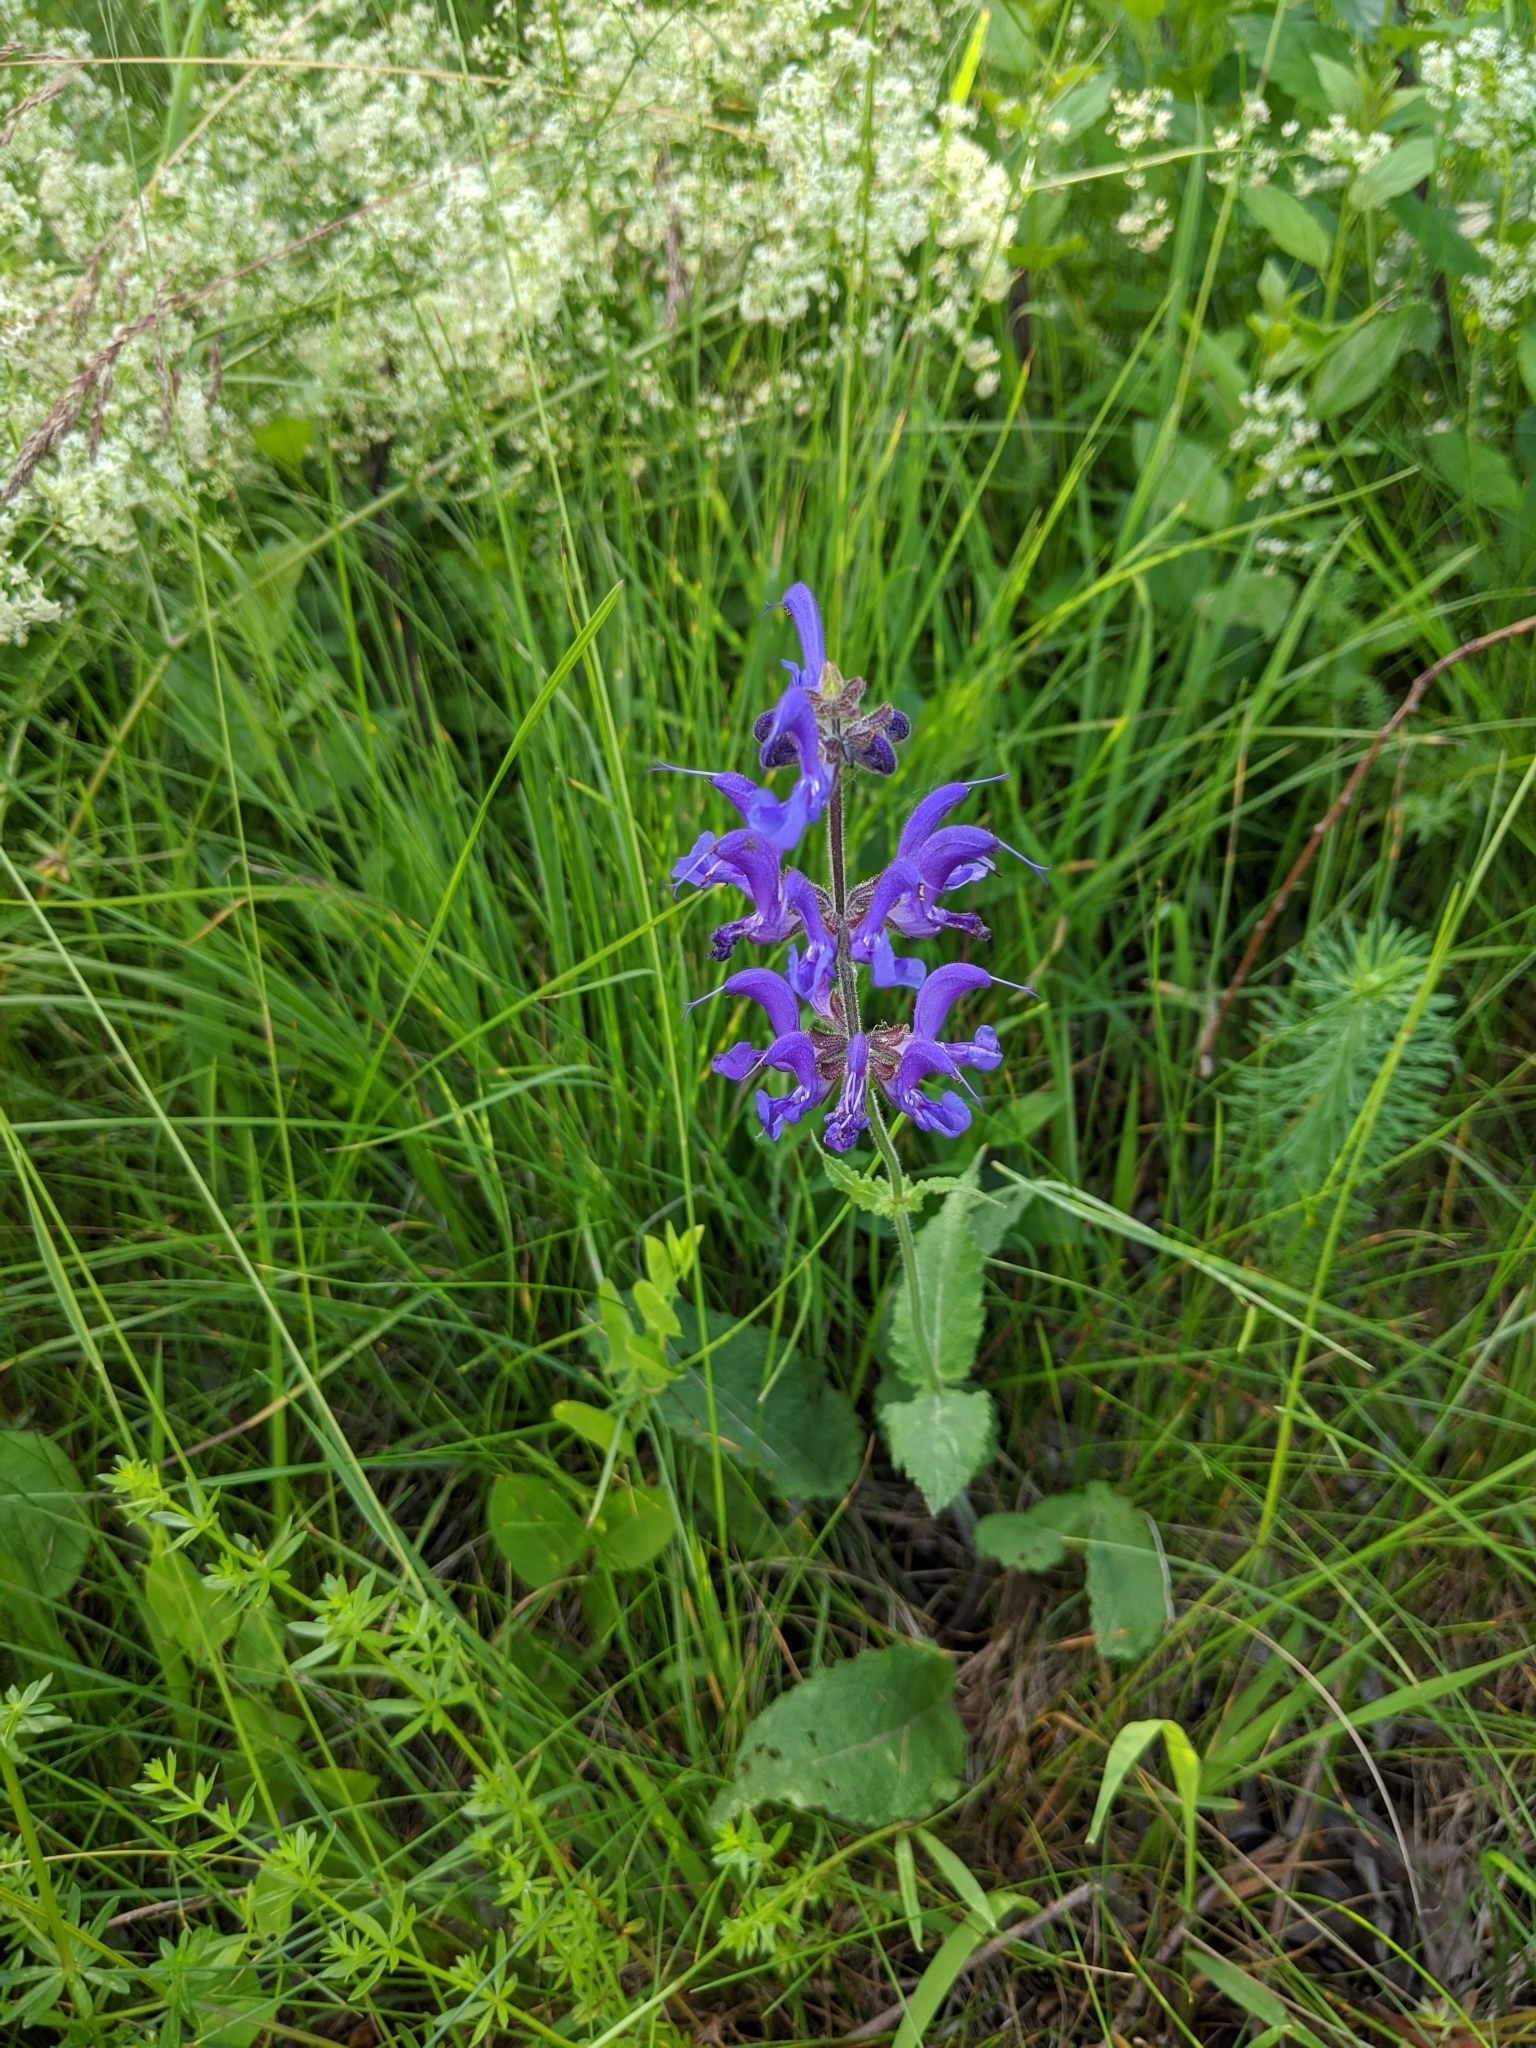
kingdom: Plantae
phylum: Tracheophyta
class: Magnoliopsida
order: Lamiales
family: Lamiaceae
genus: Salvia
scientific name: Salvia pratensis
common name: Meadow sage
